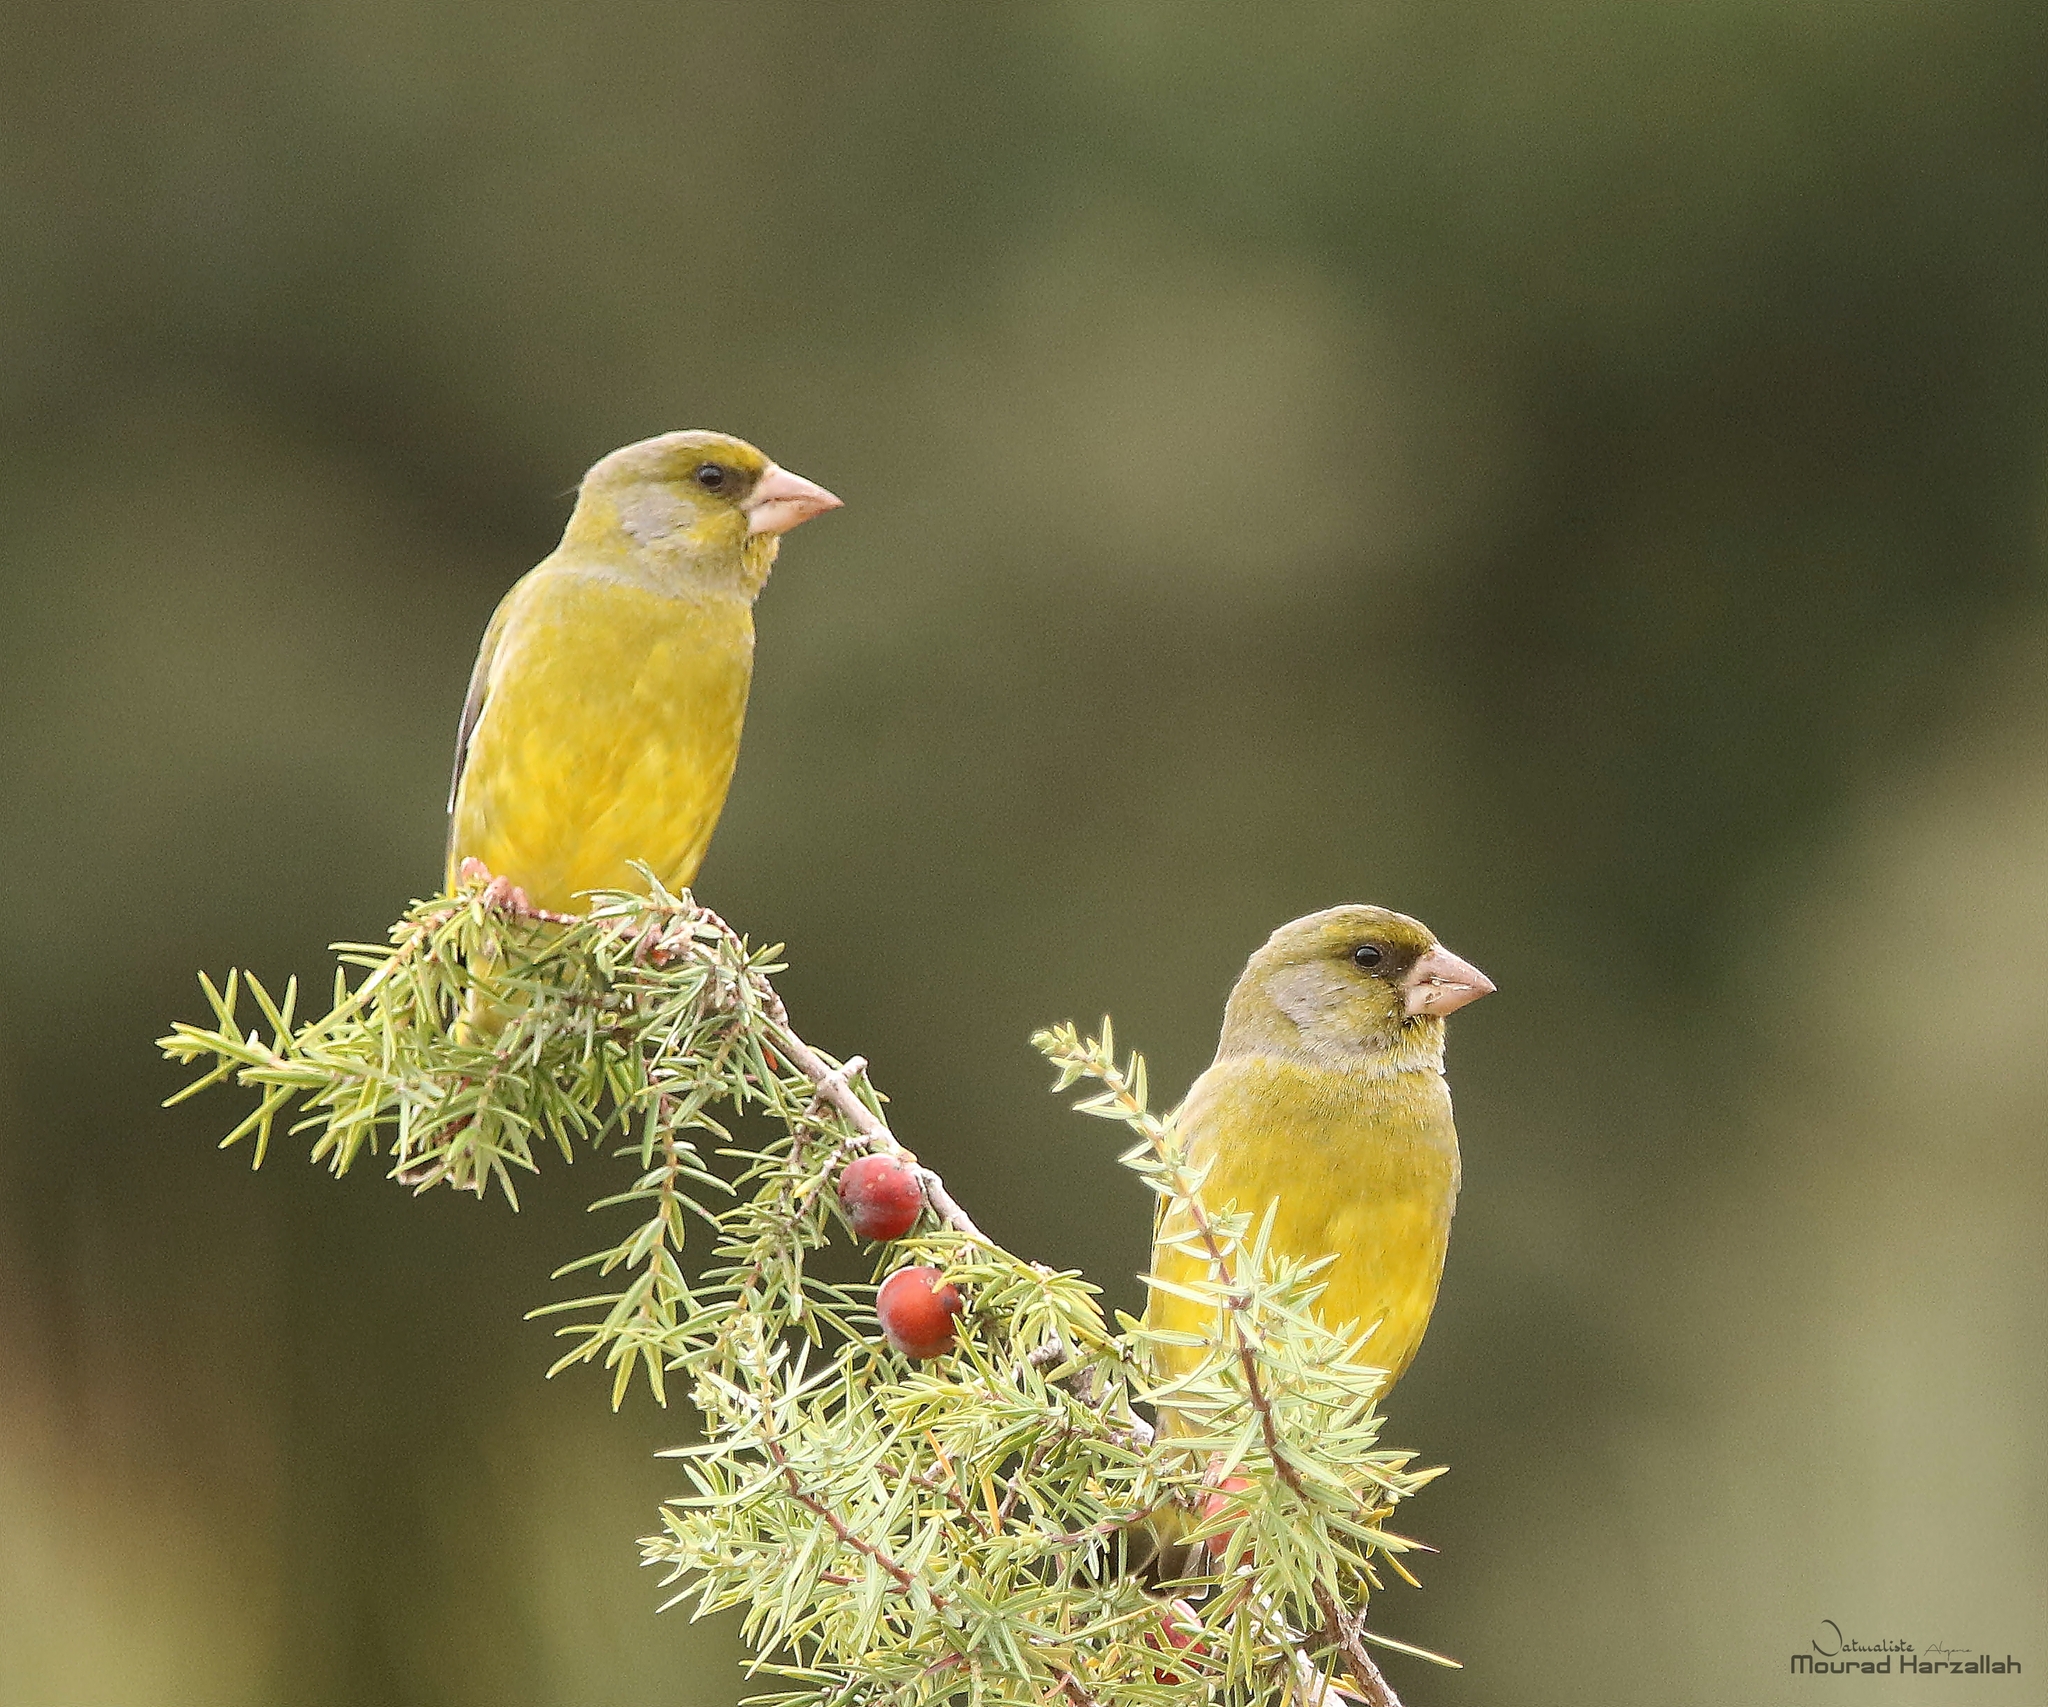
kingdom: Plantae
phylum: Tracheophyta
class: Liliopsida
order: Poales
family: Poaceae
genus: Chloris
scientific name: Chloris chloris
